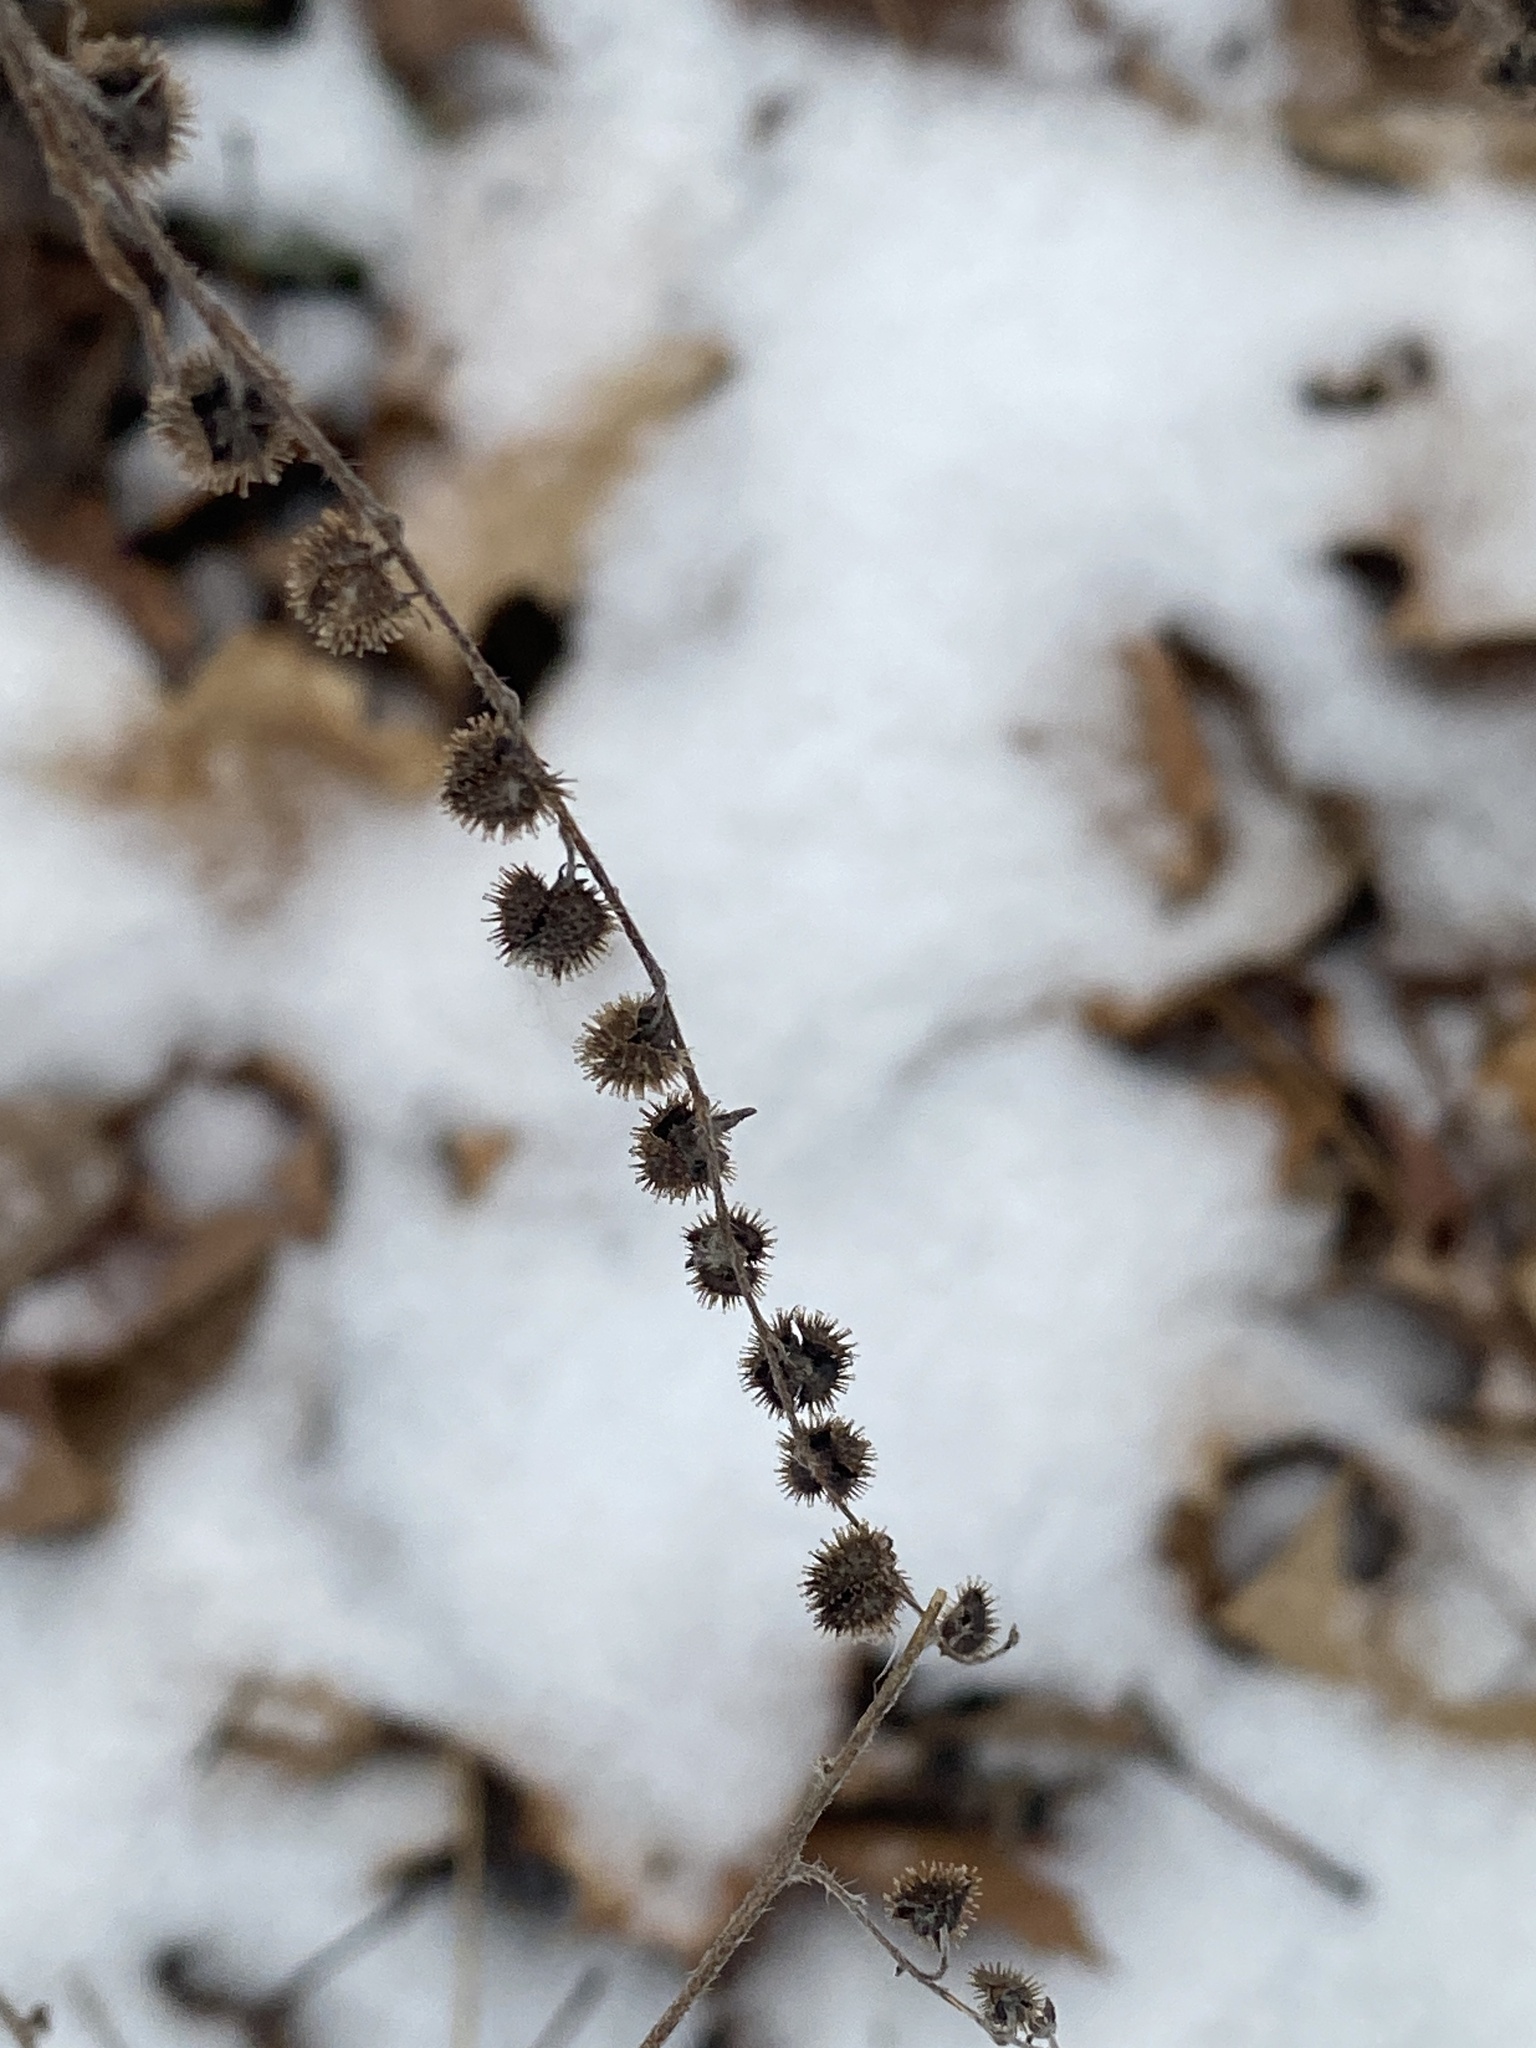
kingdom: Plantae
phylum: Tracheophyta
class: Magnoliopsida
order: Boraginales
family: Boraginaceae
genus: Hackelia
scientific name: Hackelia virginiana
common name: Beggar's-lice
